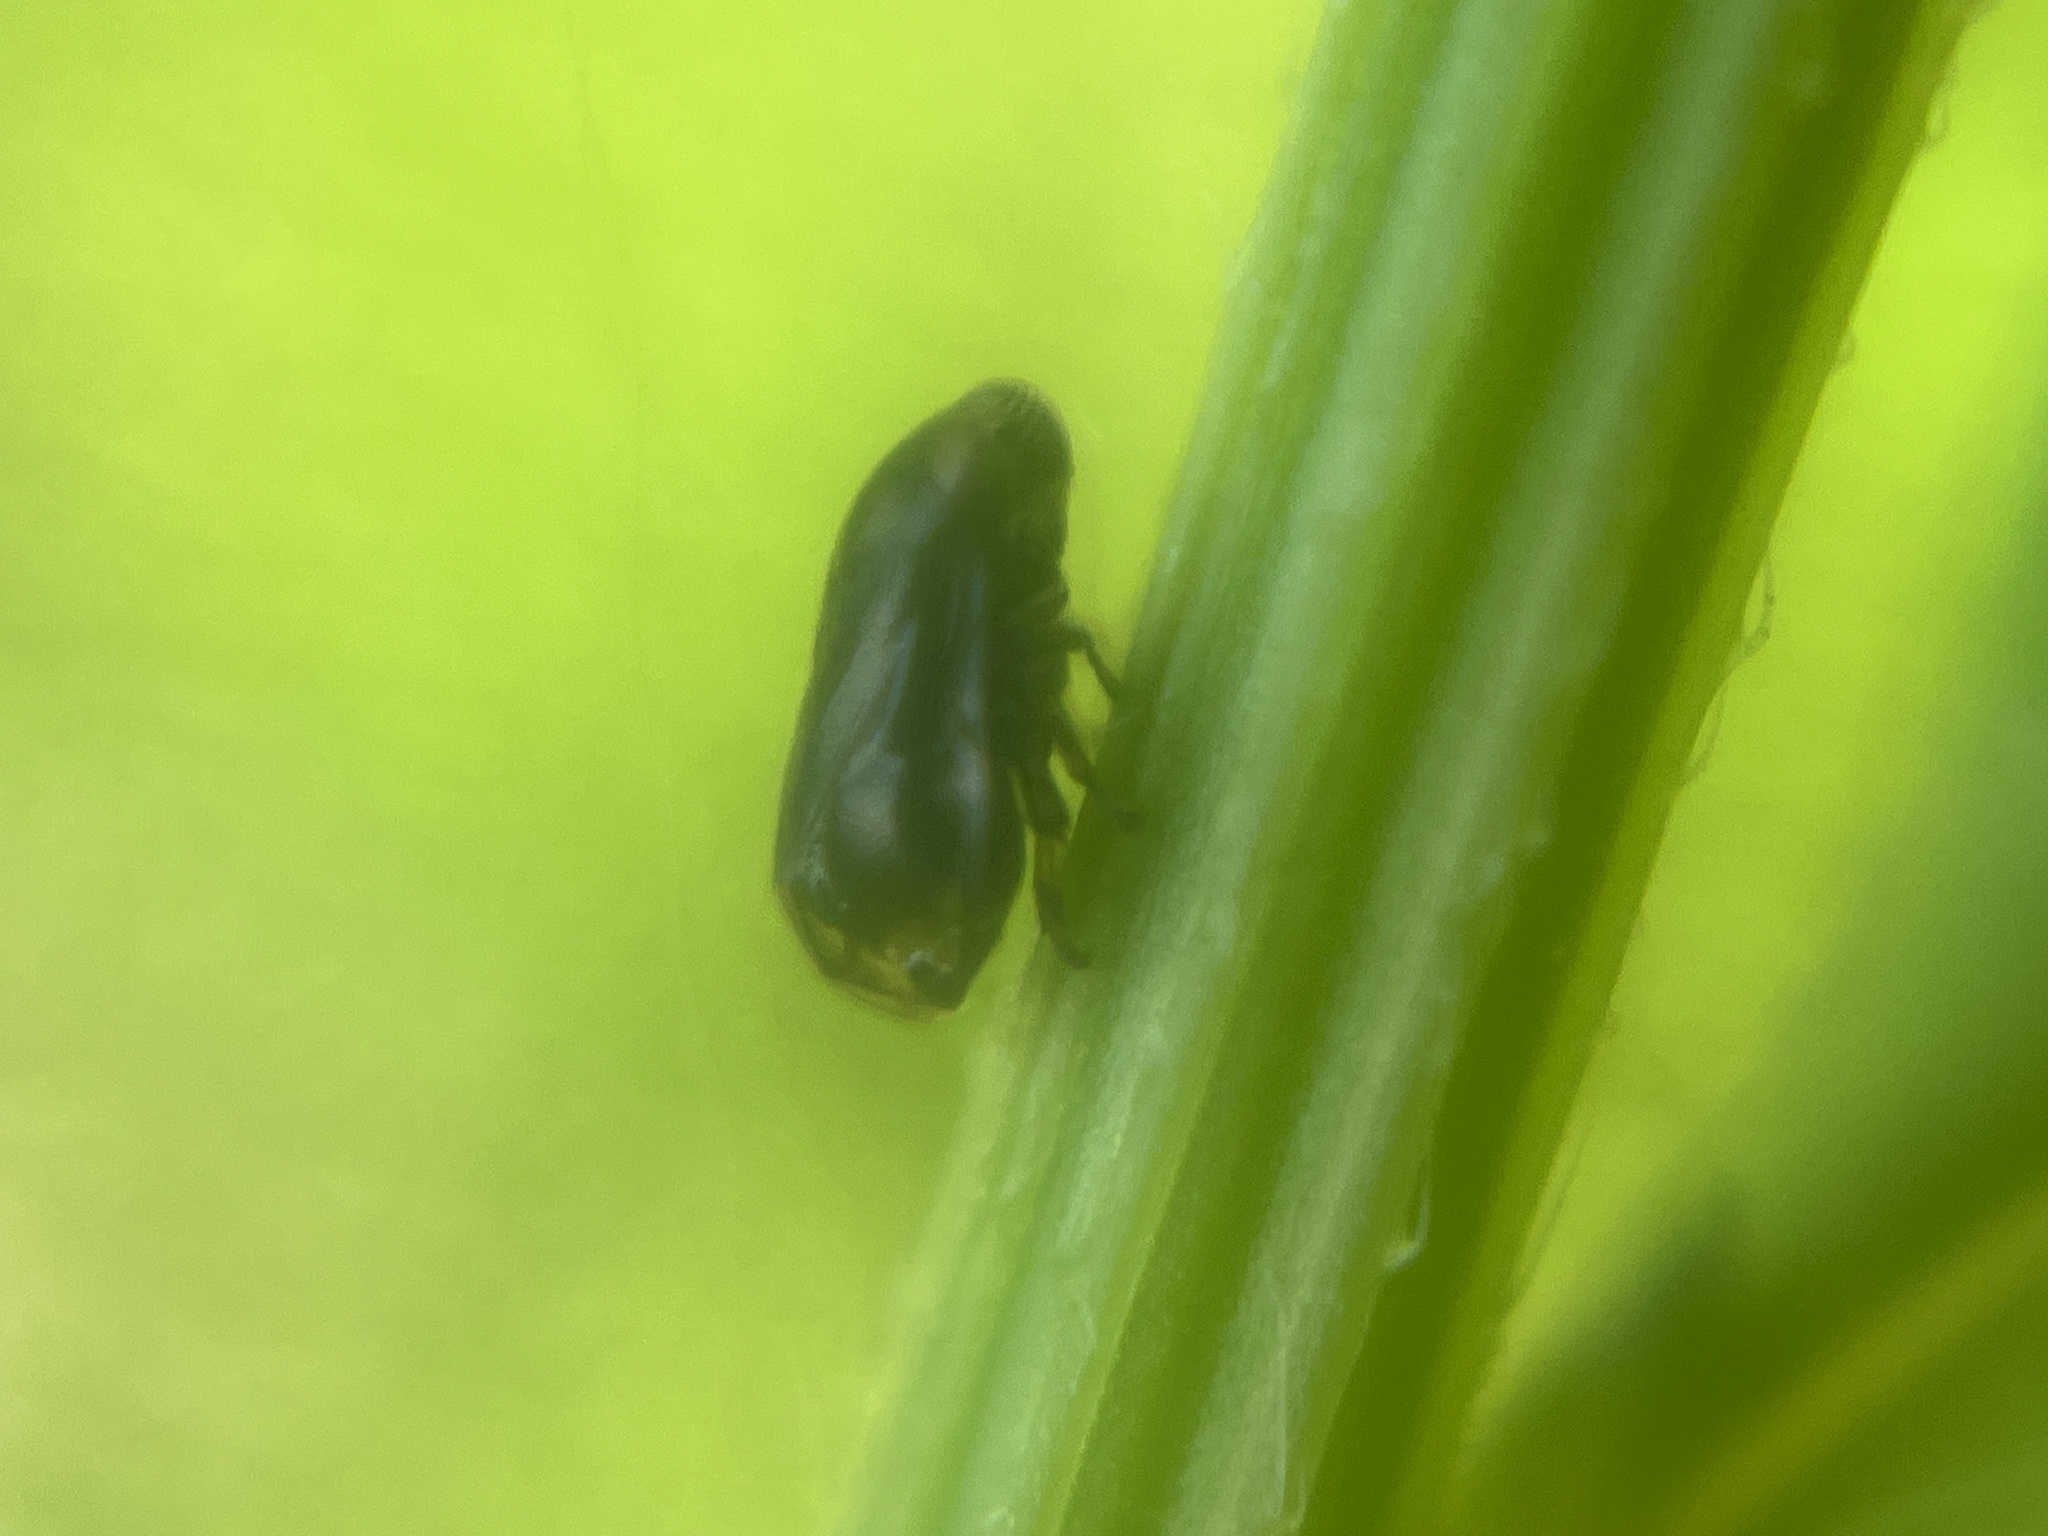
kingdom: Animalia
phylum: Arthropoda
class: Insecta
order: Hemiptera
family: Clastopteridae
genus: Clastoptera
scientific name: Clastoptera xanthocephala
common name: Sunflower spittlebug
